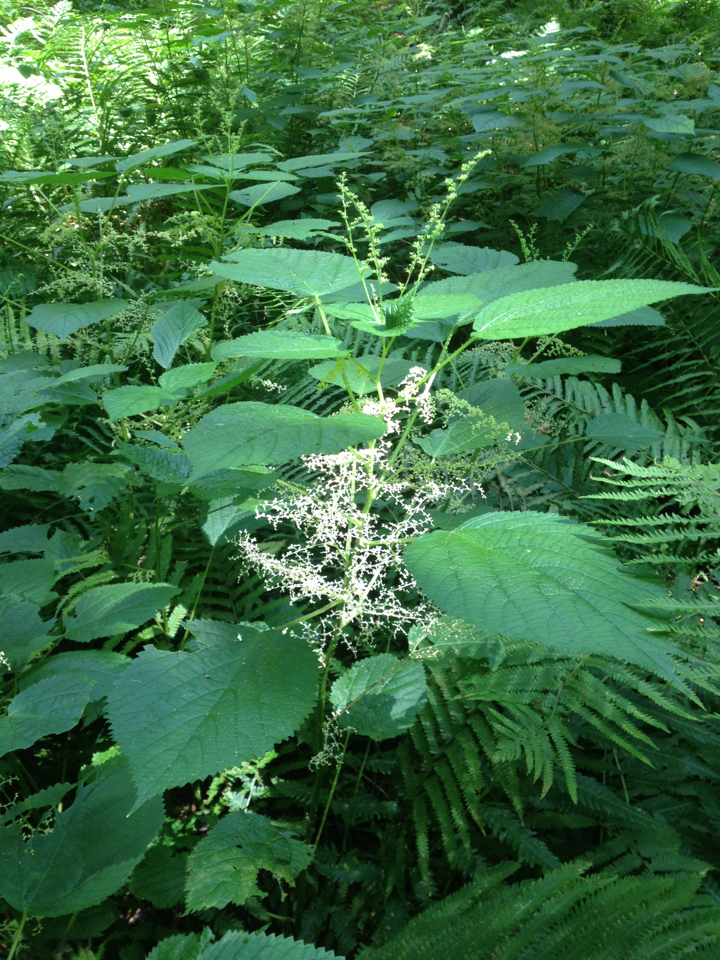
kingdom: Plantae
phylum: Tracheophyta
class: Magnoliopsida
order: Rosales
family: Urticaceae
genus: Laportea
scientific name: Laportea canadensis
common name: Canada nettle
